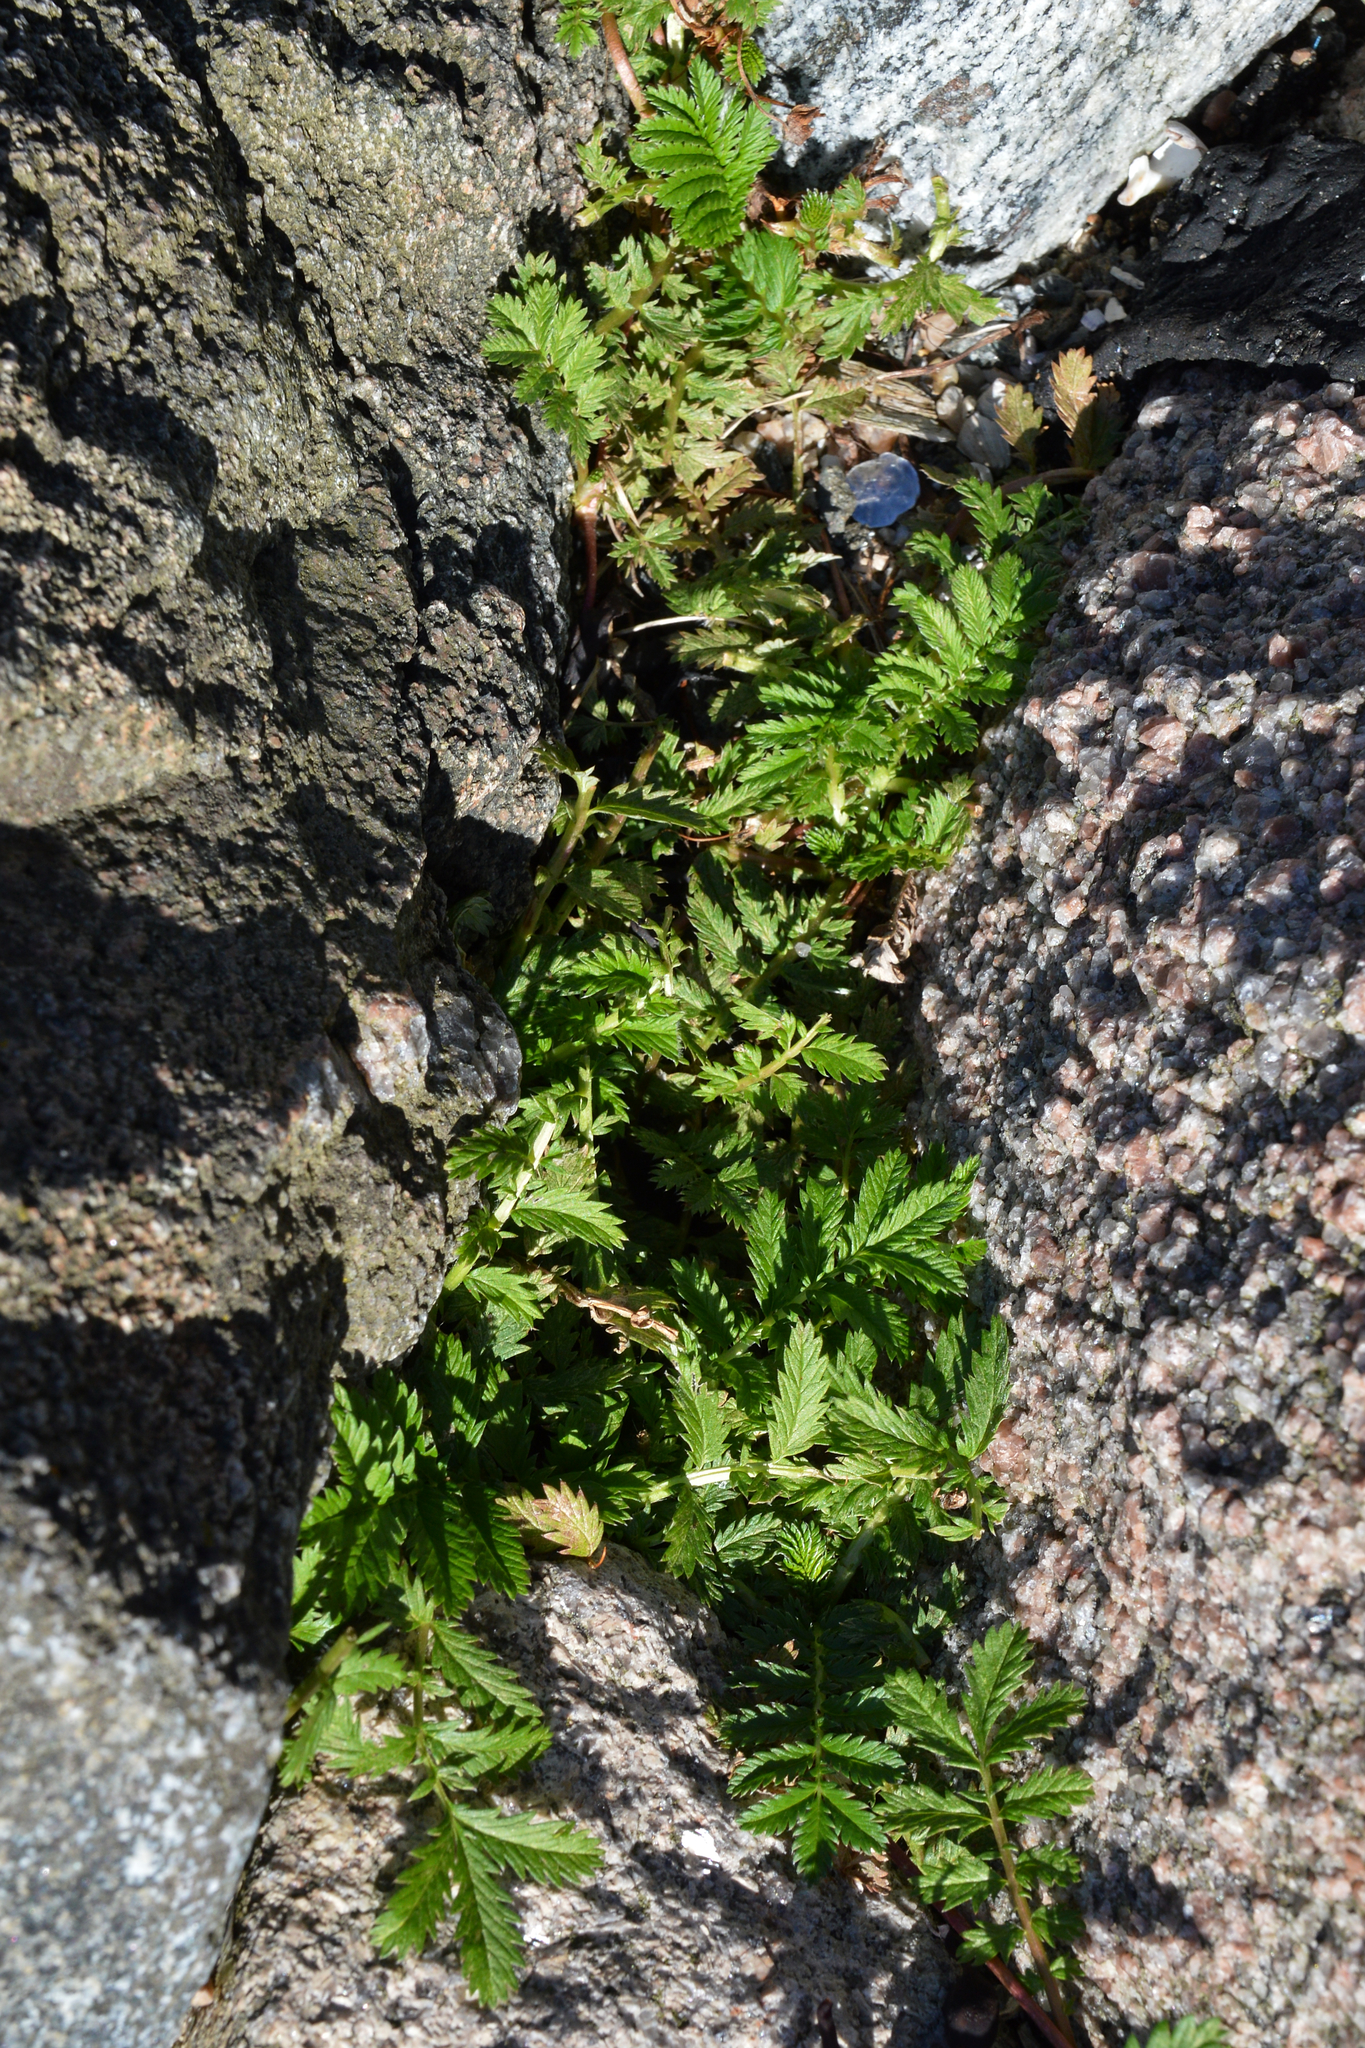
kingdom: Plantae
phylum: Tracheophyta
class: Magnoliopsida
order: Rosales
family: Rosaceae
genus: Argentina
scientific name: Argentina anserina
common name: Common silverweed
